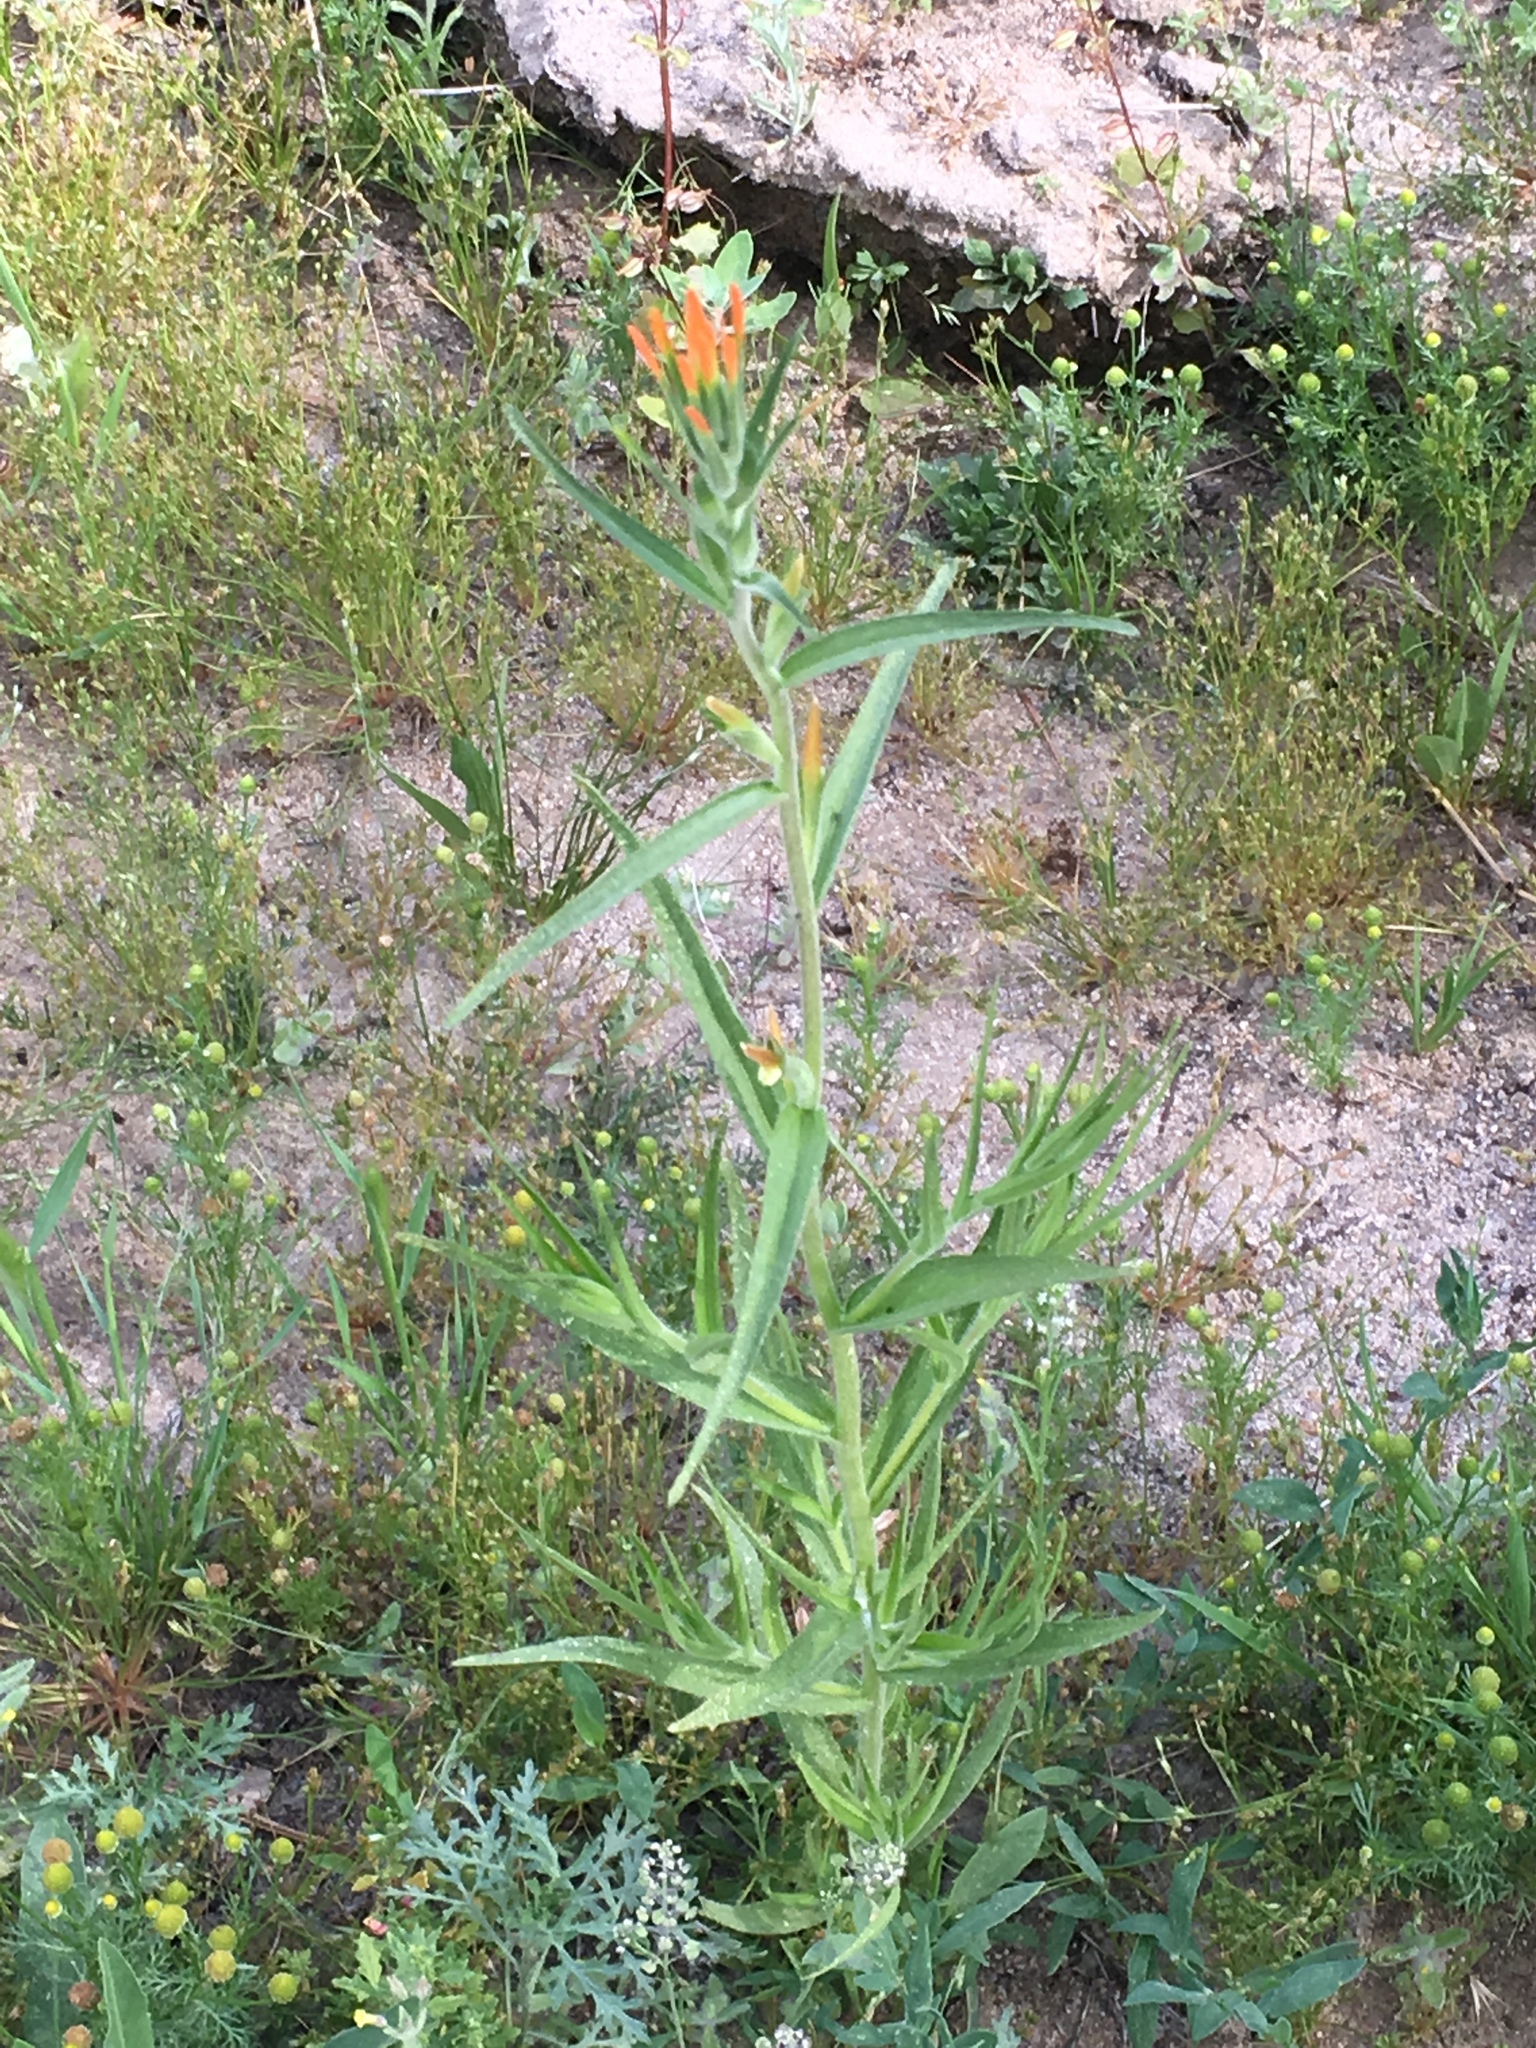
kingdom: Plantae
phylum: Tracheophyta
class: Magnoliopsida
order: Lamiales
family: Orobanchaceae
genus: Castilleja
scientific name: Castilleja minor
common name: Seep paintbrush
